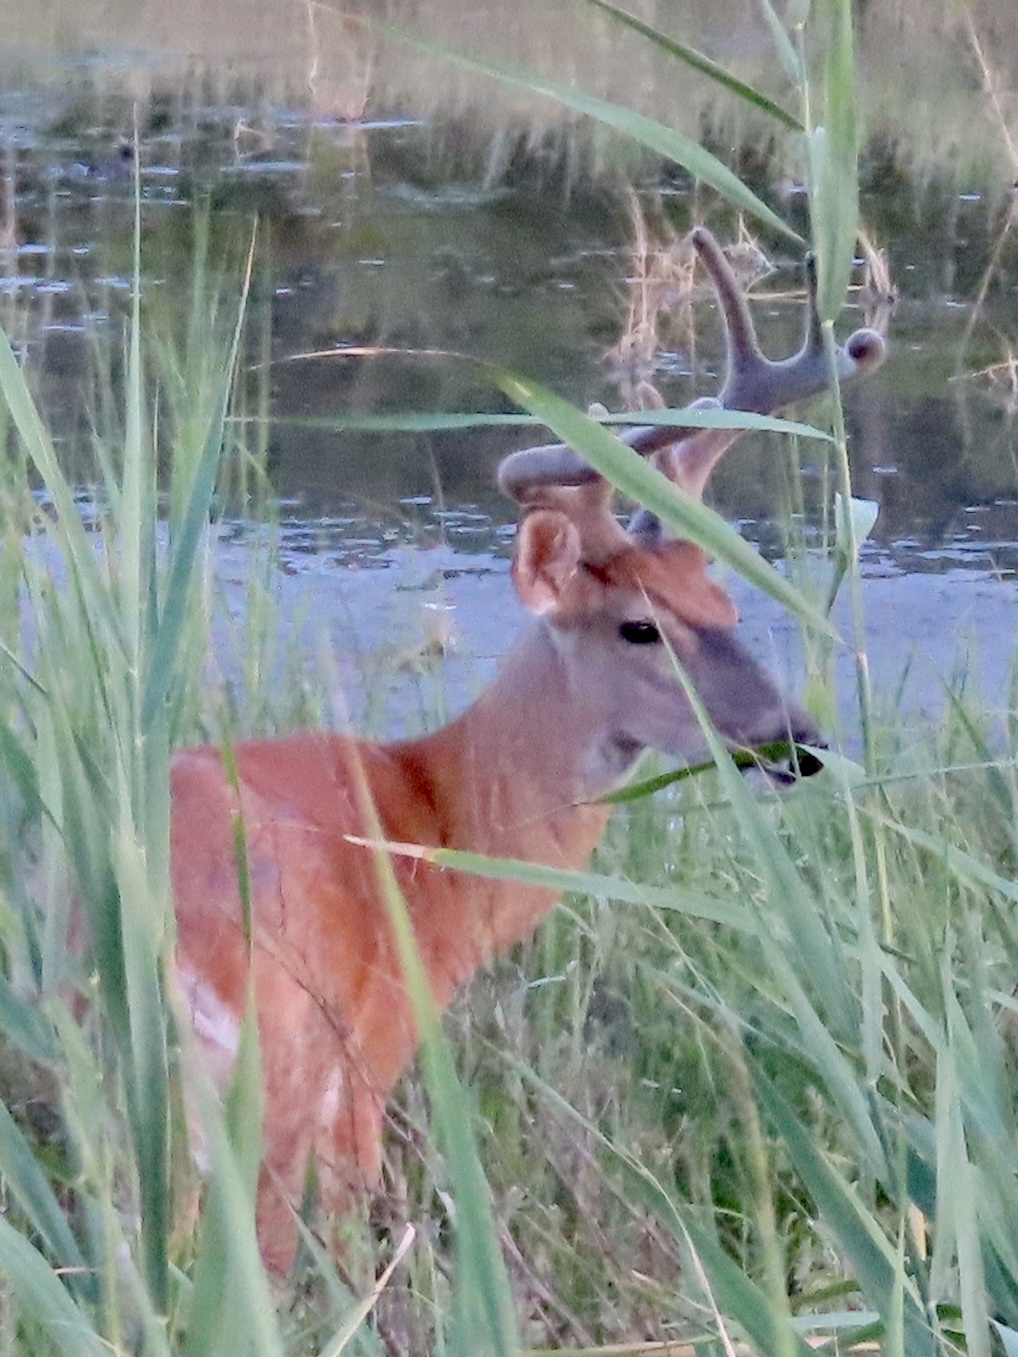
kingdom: Animalia
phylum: Chordata
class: Mammalia
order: Artiodactyla
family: Cervidae
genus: Odocoileus
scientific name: Odocoileus virginianus
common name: White-tailed deer
